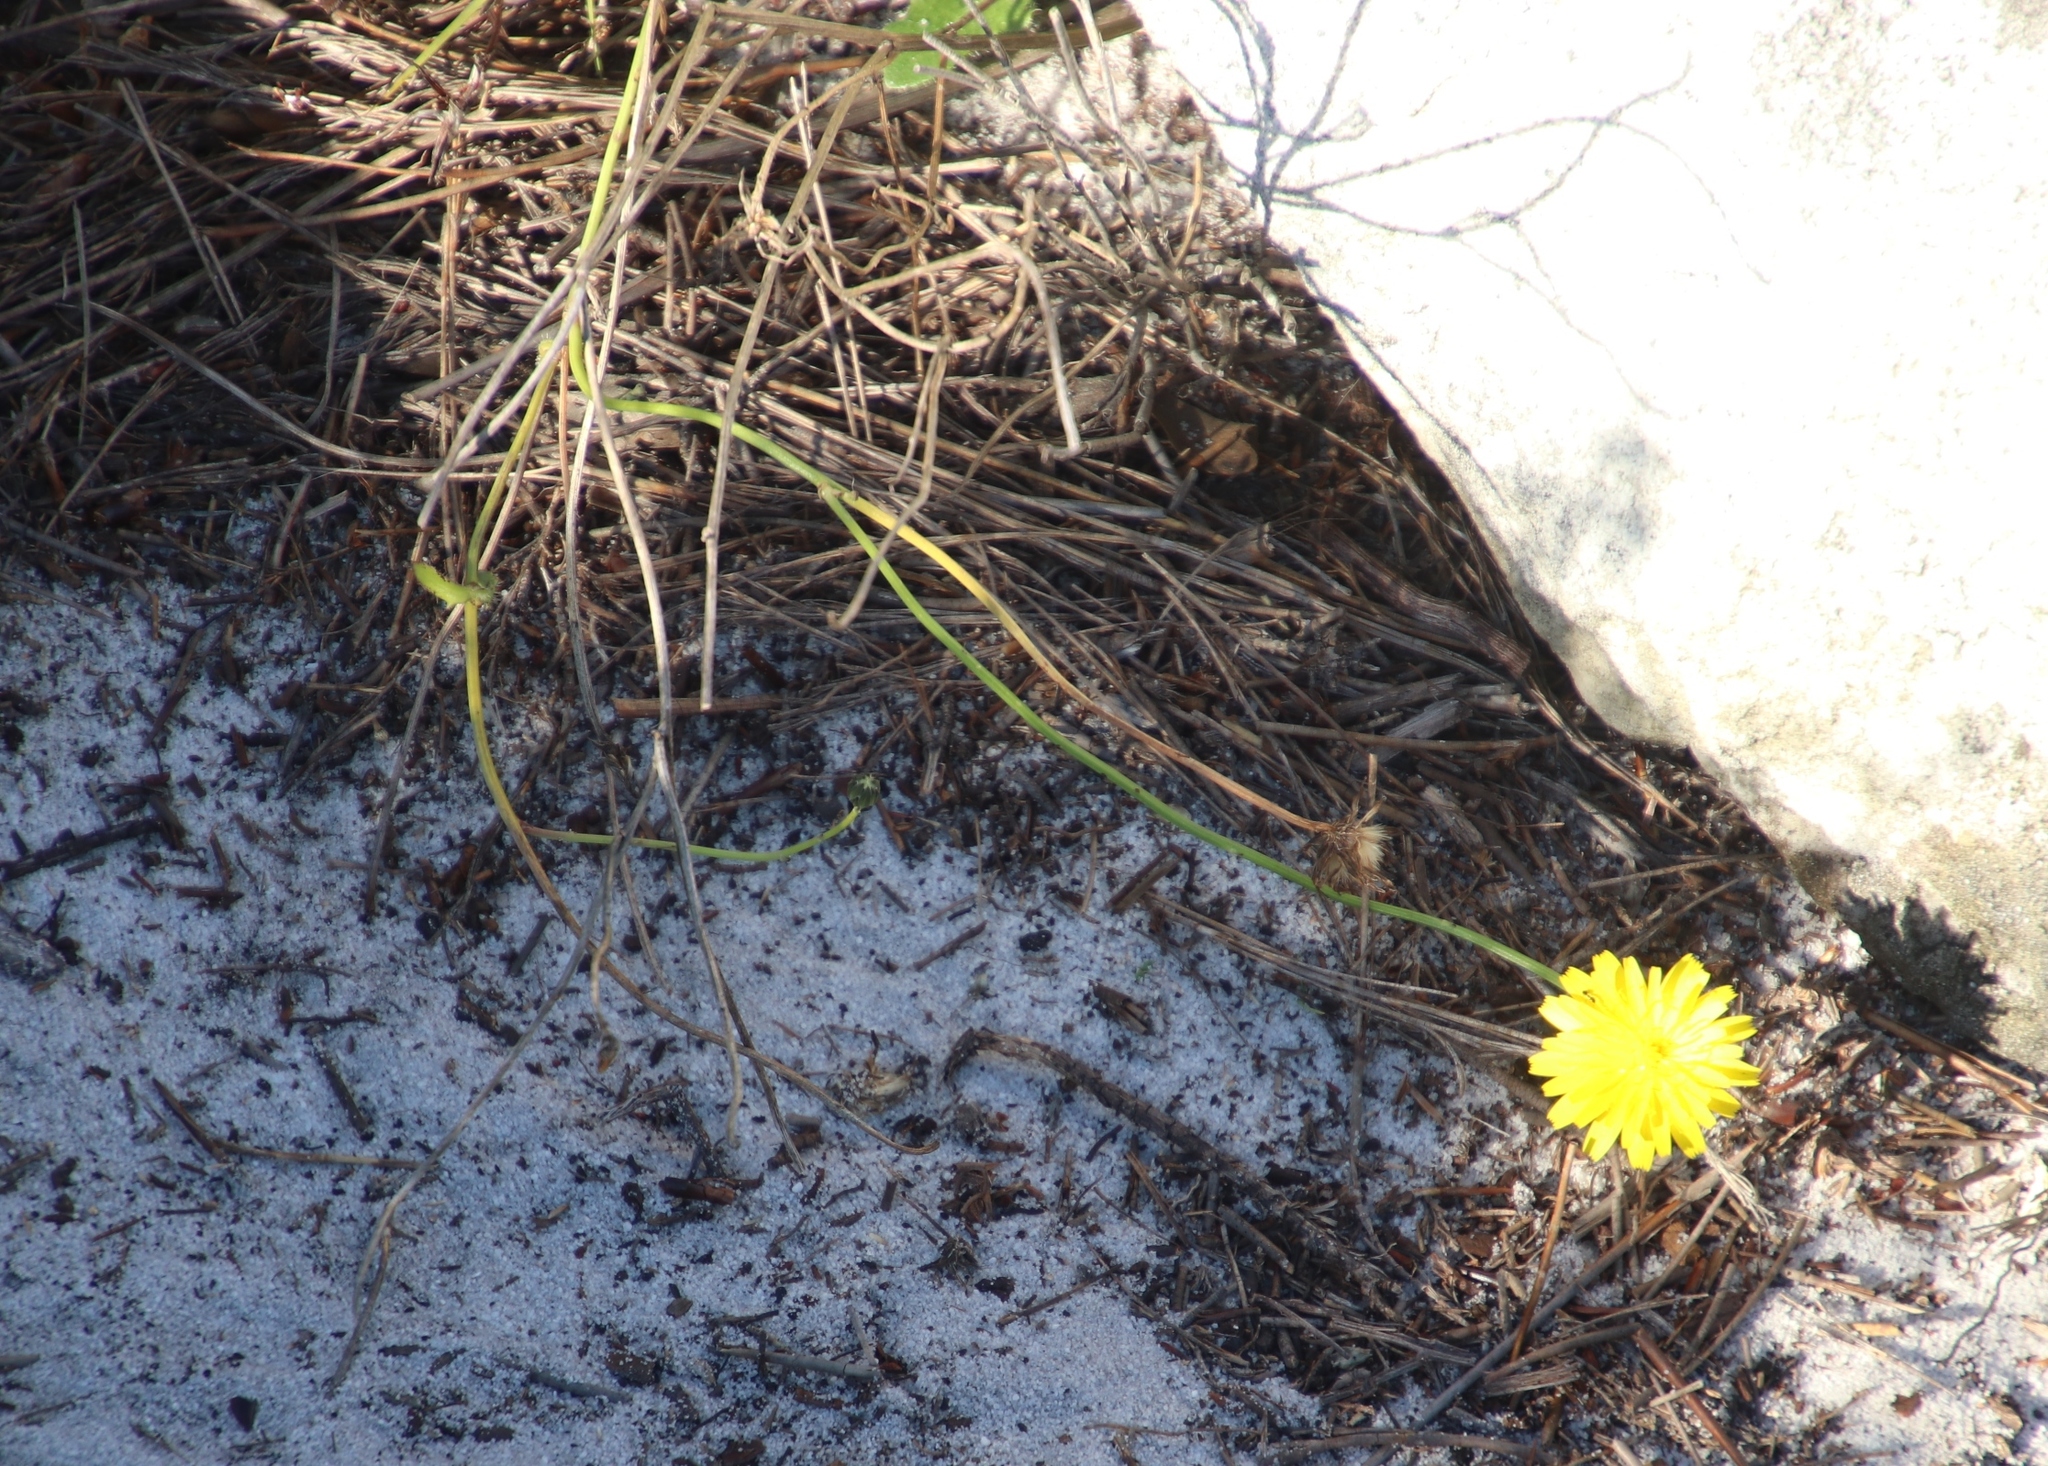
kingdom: Plantae
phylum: Tracheophyta
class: Magnoliopsida
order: Asterales
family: Asteraceae
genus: Hypochaeris
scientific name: Hypochaeris radicata
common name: Flatweed
